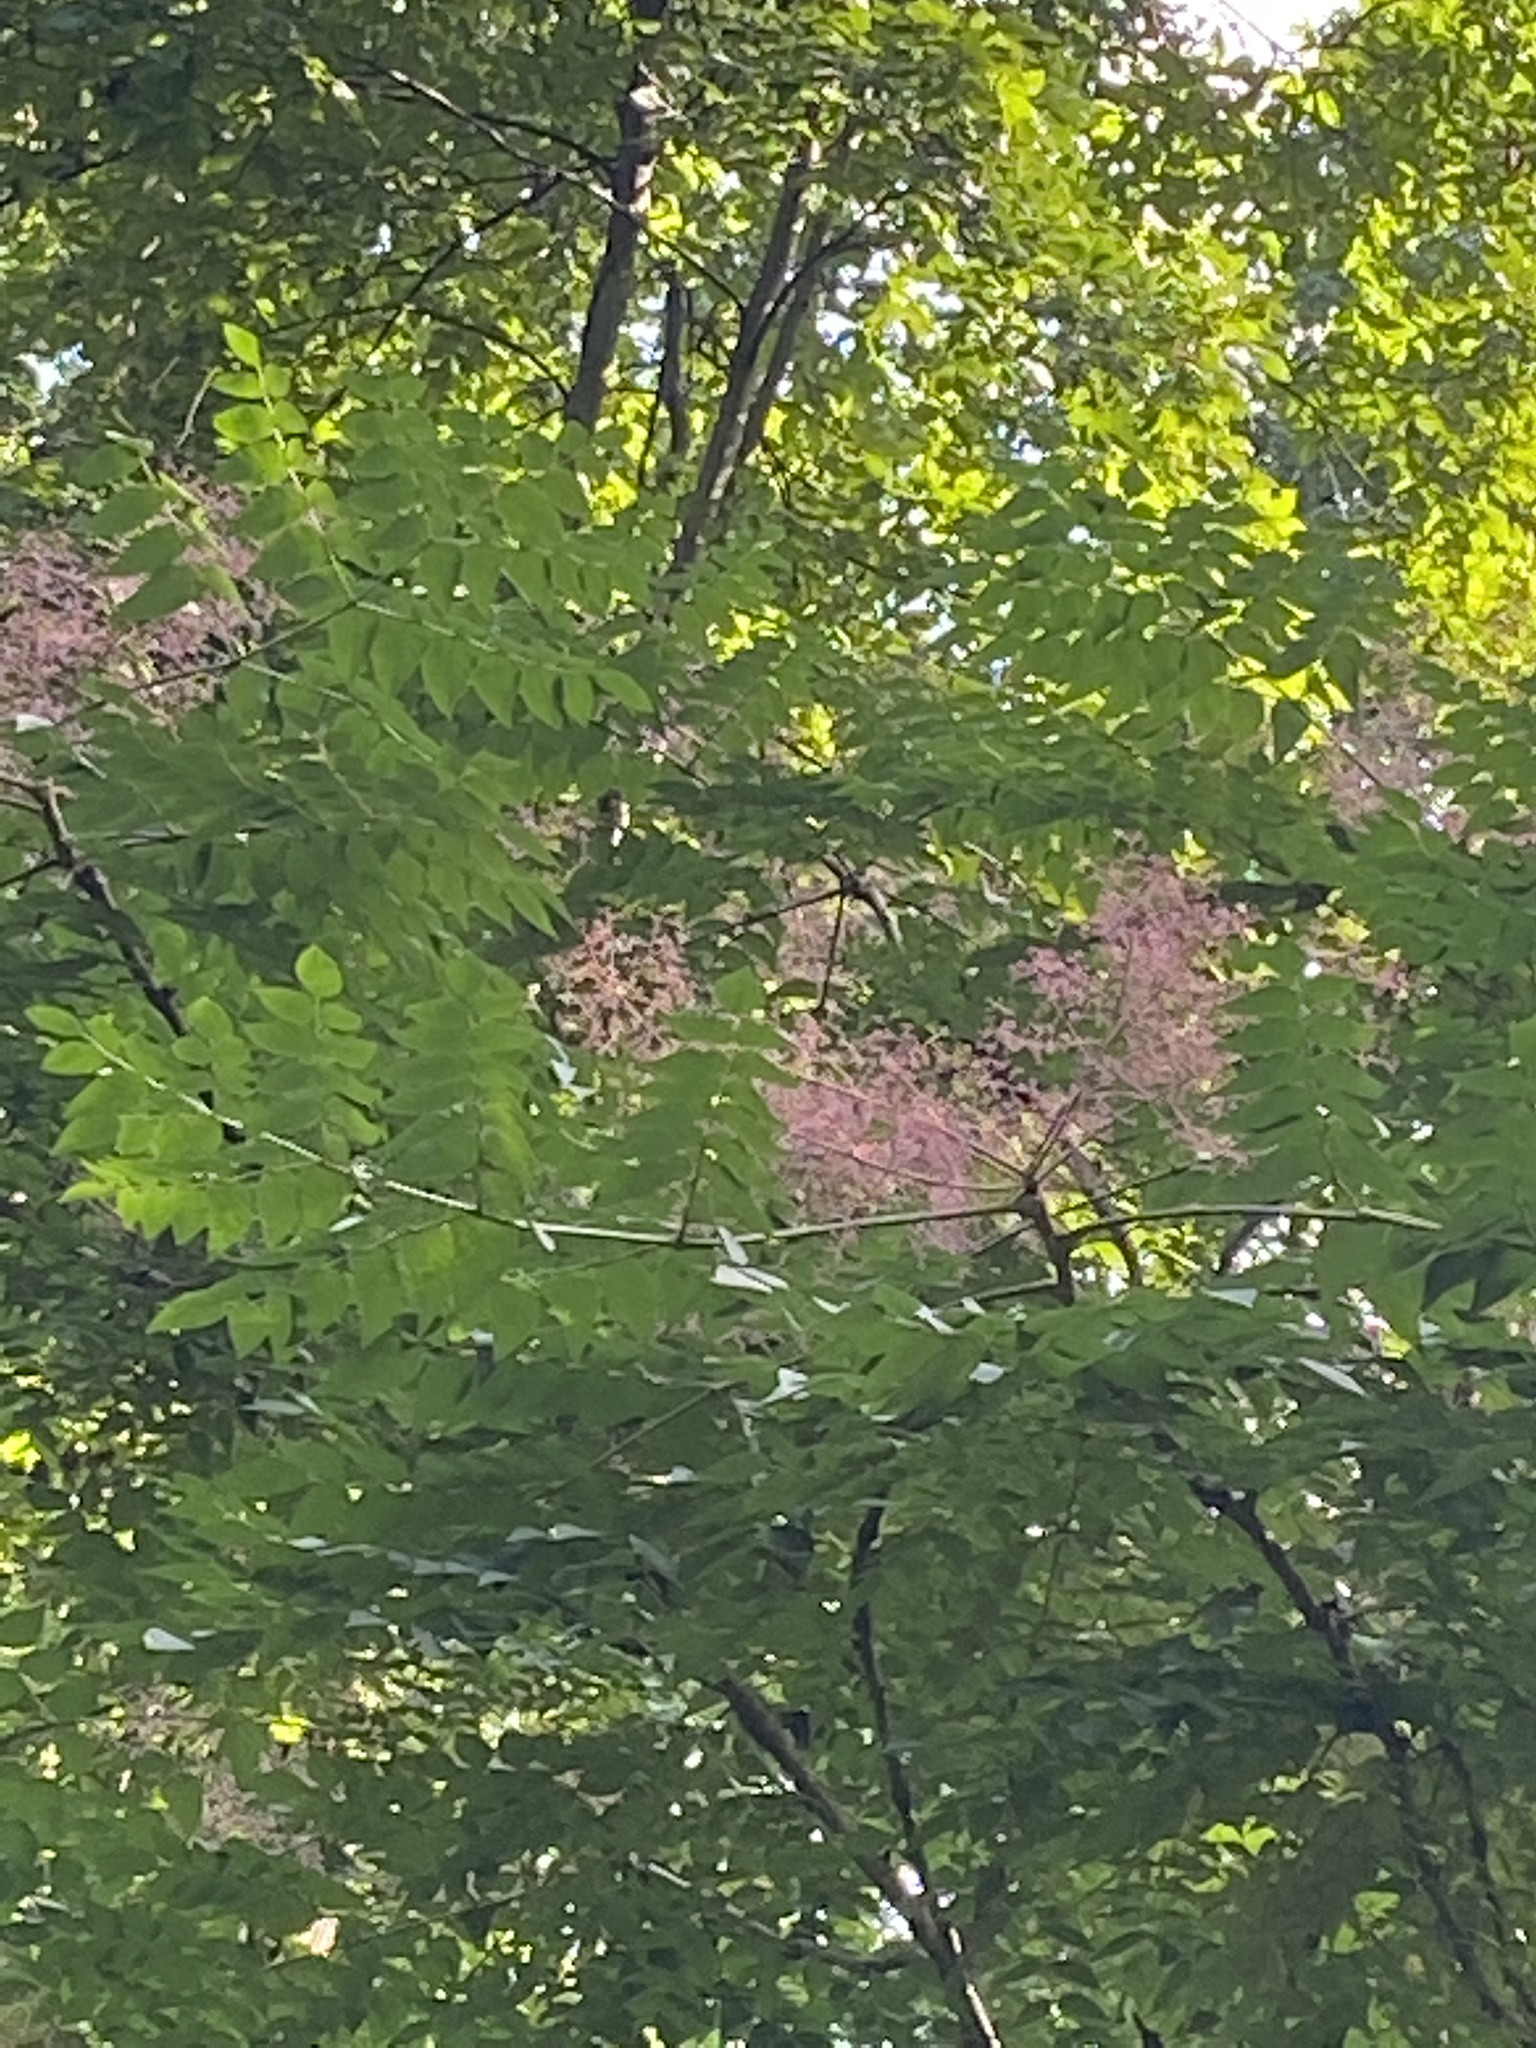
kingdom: Plantae
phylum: Tracheophyta
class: Magnoliopsida
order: Apiales
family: Araliaceae
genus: Aralia
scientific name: Aralia spinosa
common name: Hercules'-club
